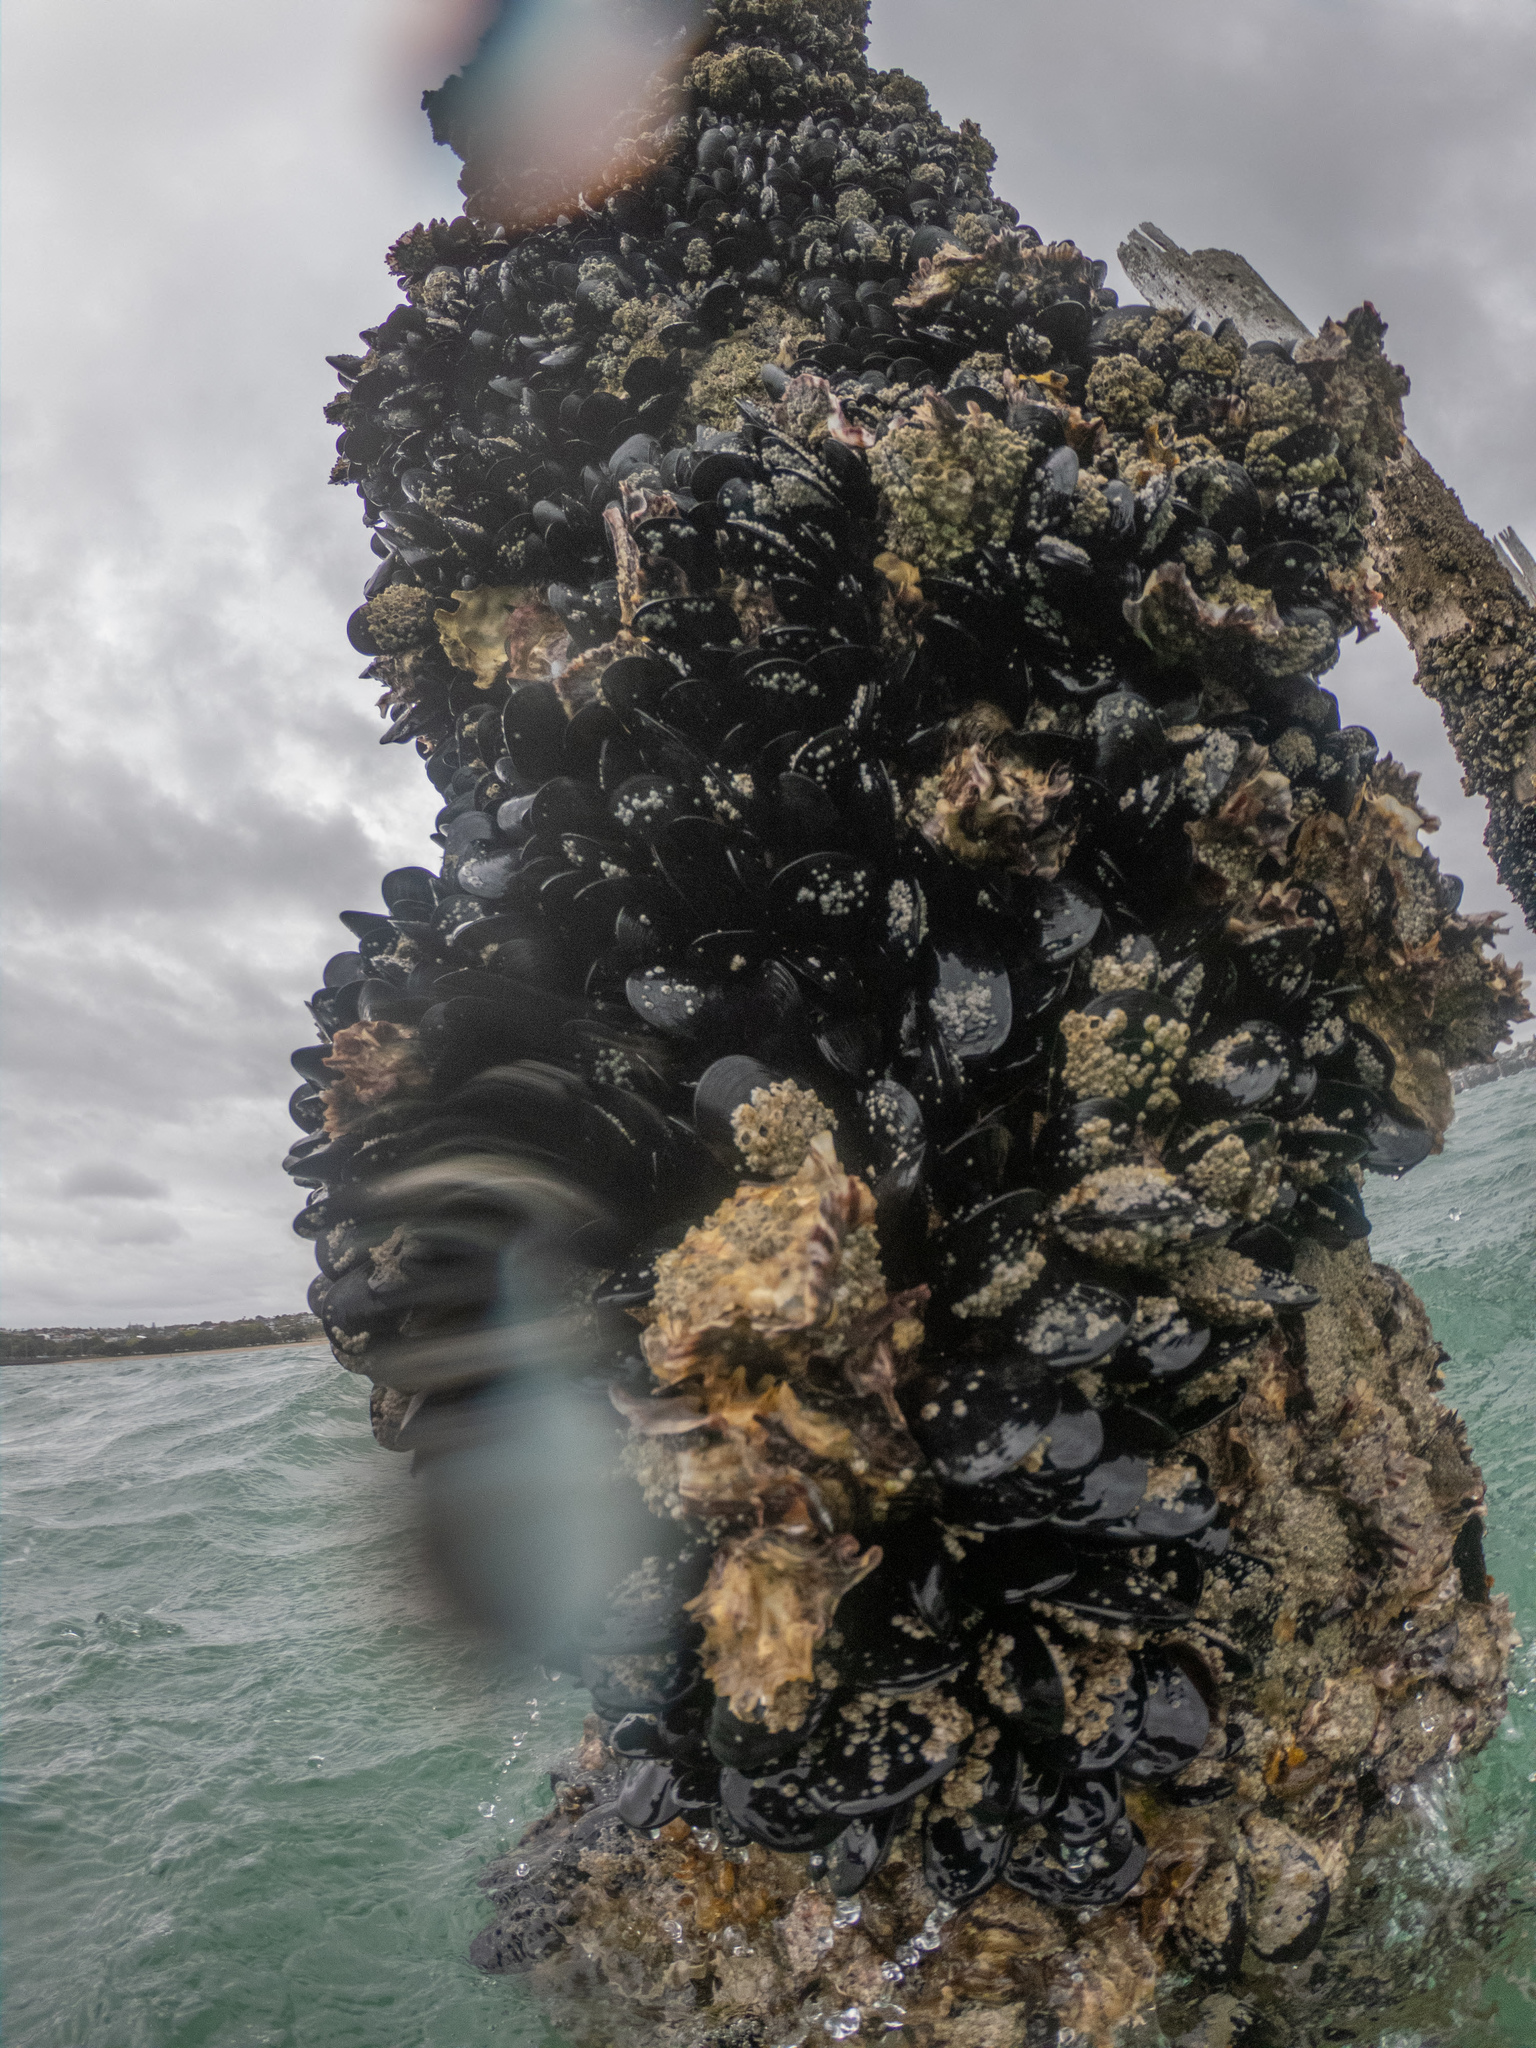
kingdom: Animalia
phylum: Mollusca
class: Bivalvia
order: Mytilida
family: Mytilidae
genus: Mytilus
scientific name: Mytilus planulatus
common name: Australian mussel
